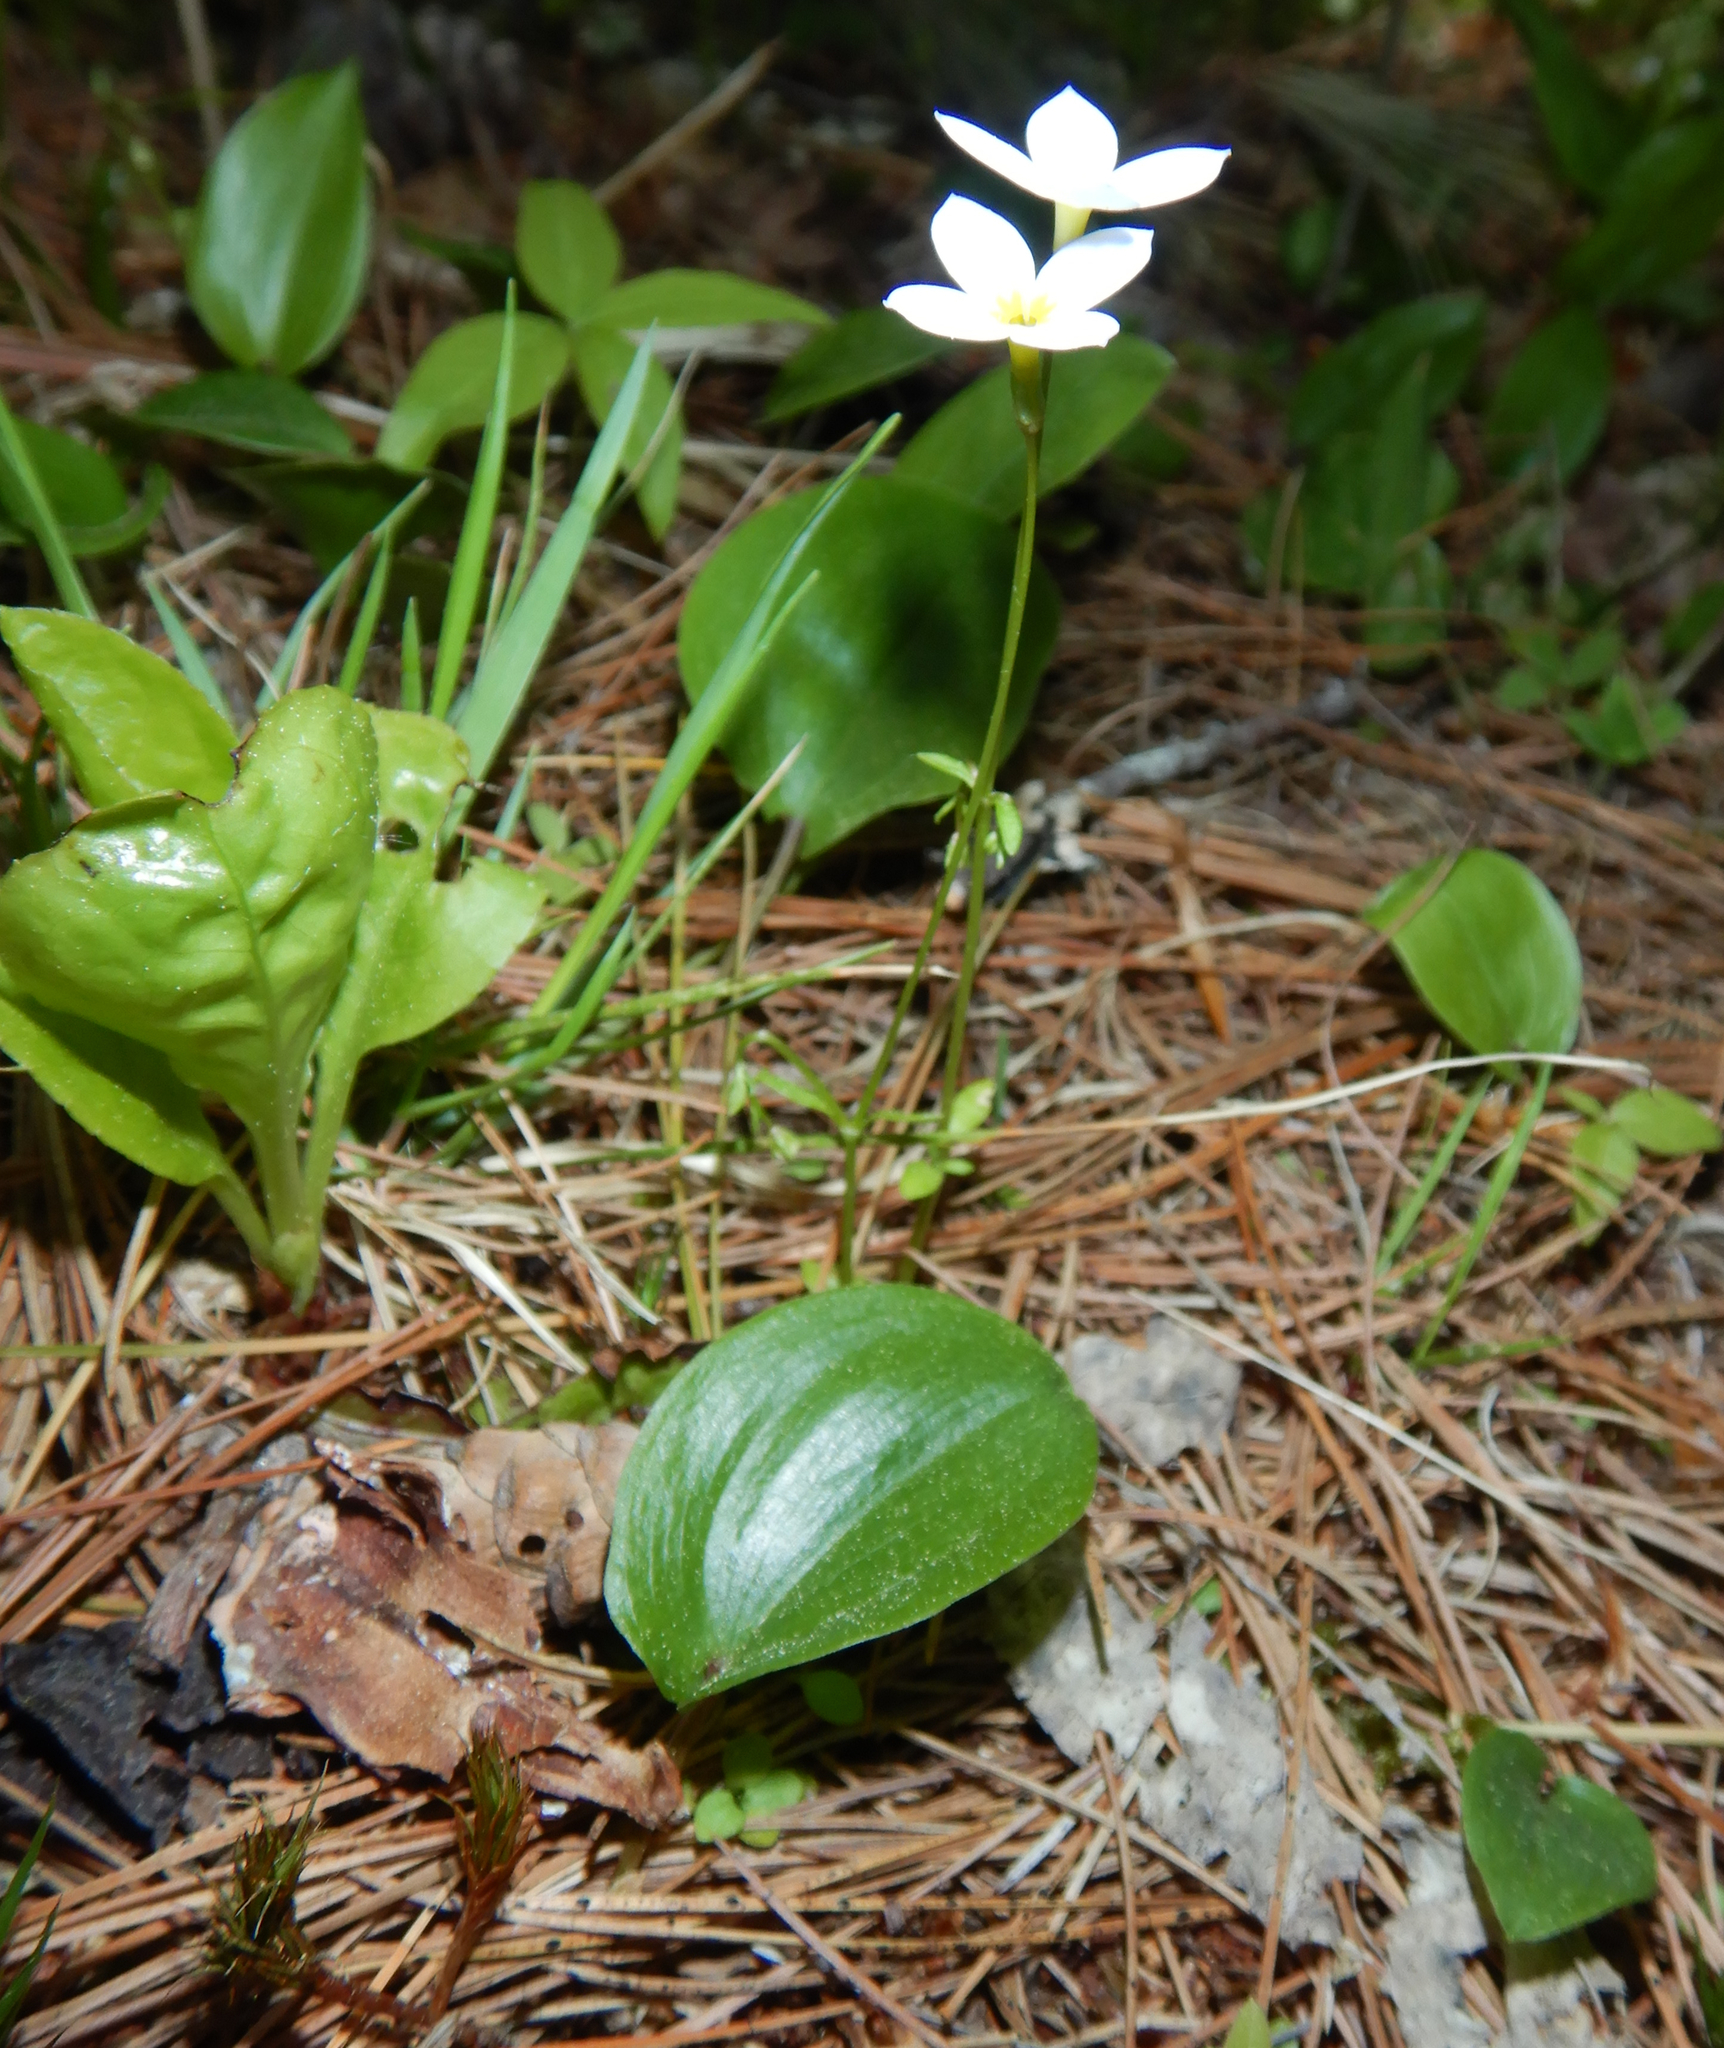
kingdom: Plantae
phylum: Tracheophyta
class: Magnoliopsida
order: Gentianales
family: Rubiaceae
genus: Houstonia
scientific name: Houstonia caerulea
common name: Bluets
